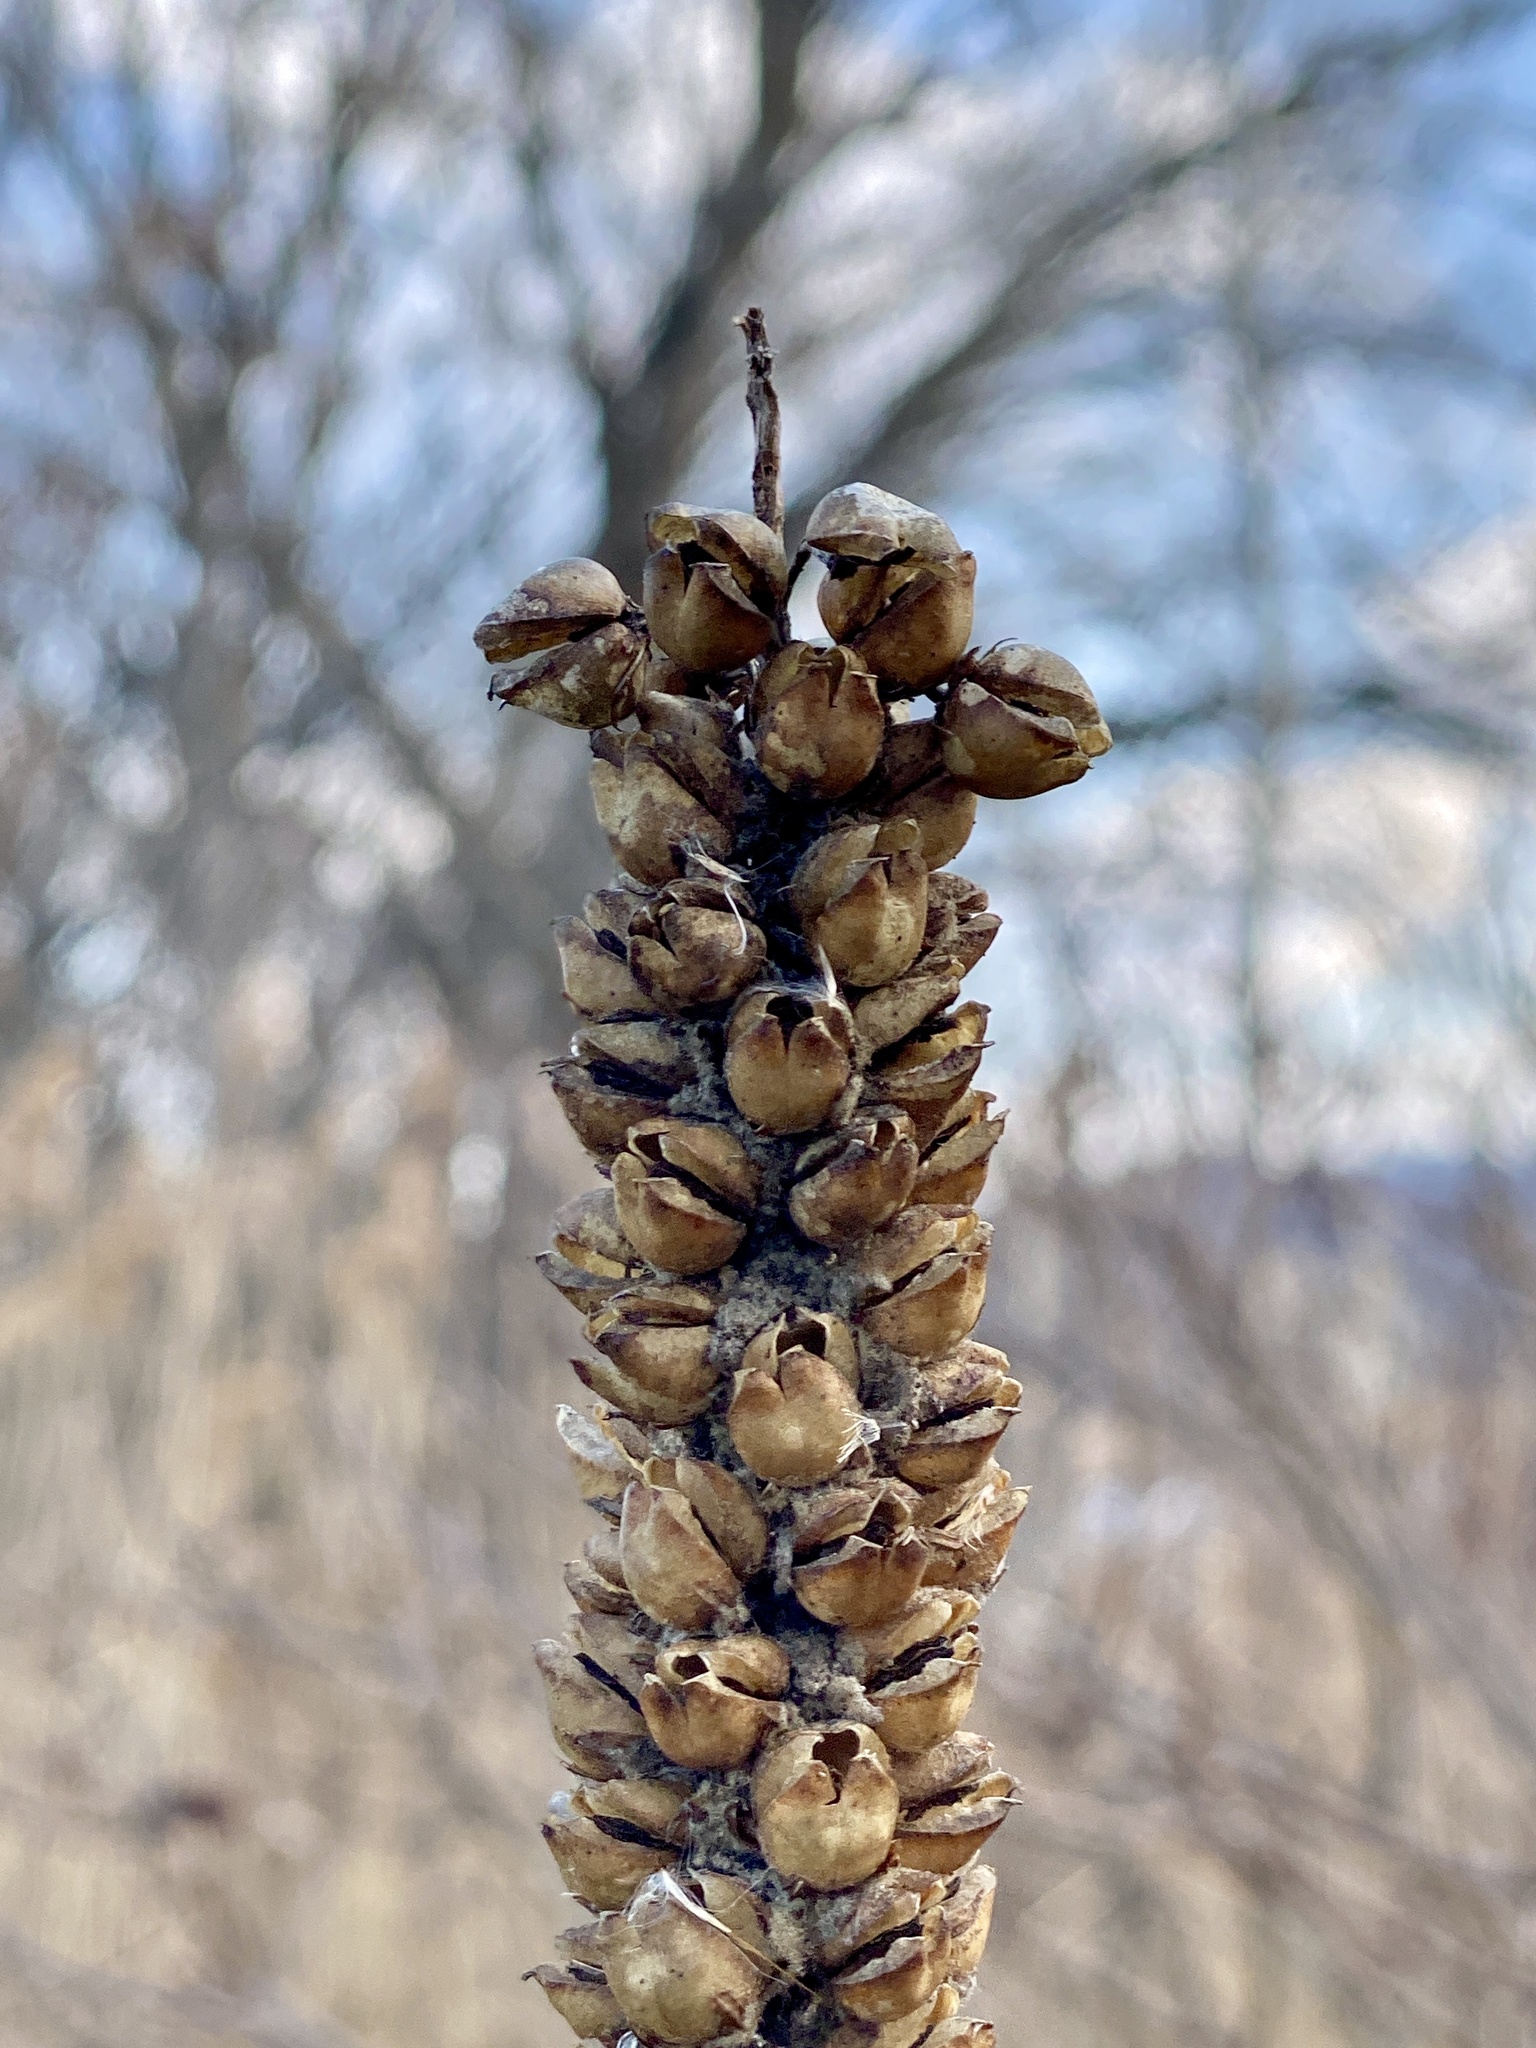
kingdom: Plantae
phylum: Tracheophyta
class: Magnoliopsida
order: Lamiales
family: Scrophulariaceae
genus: Verbascum
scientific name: Verbascum thapsus
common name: Common mullein
